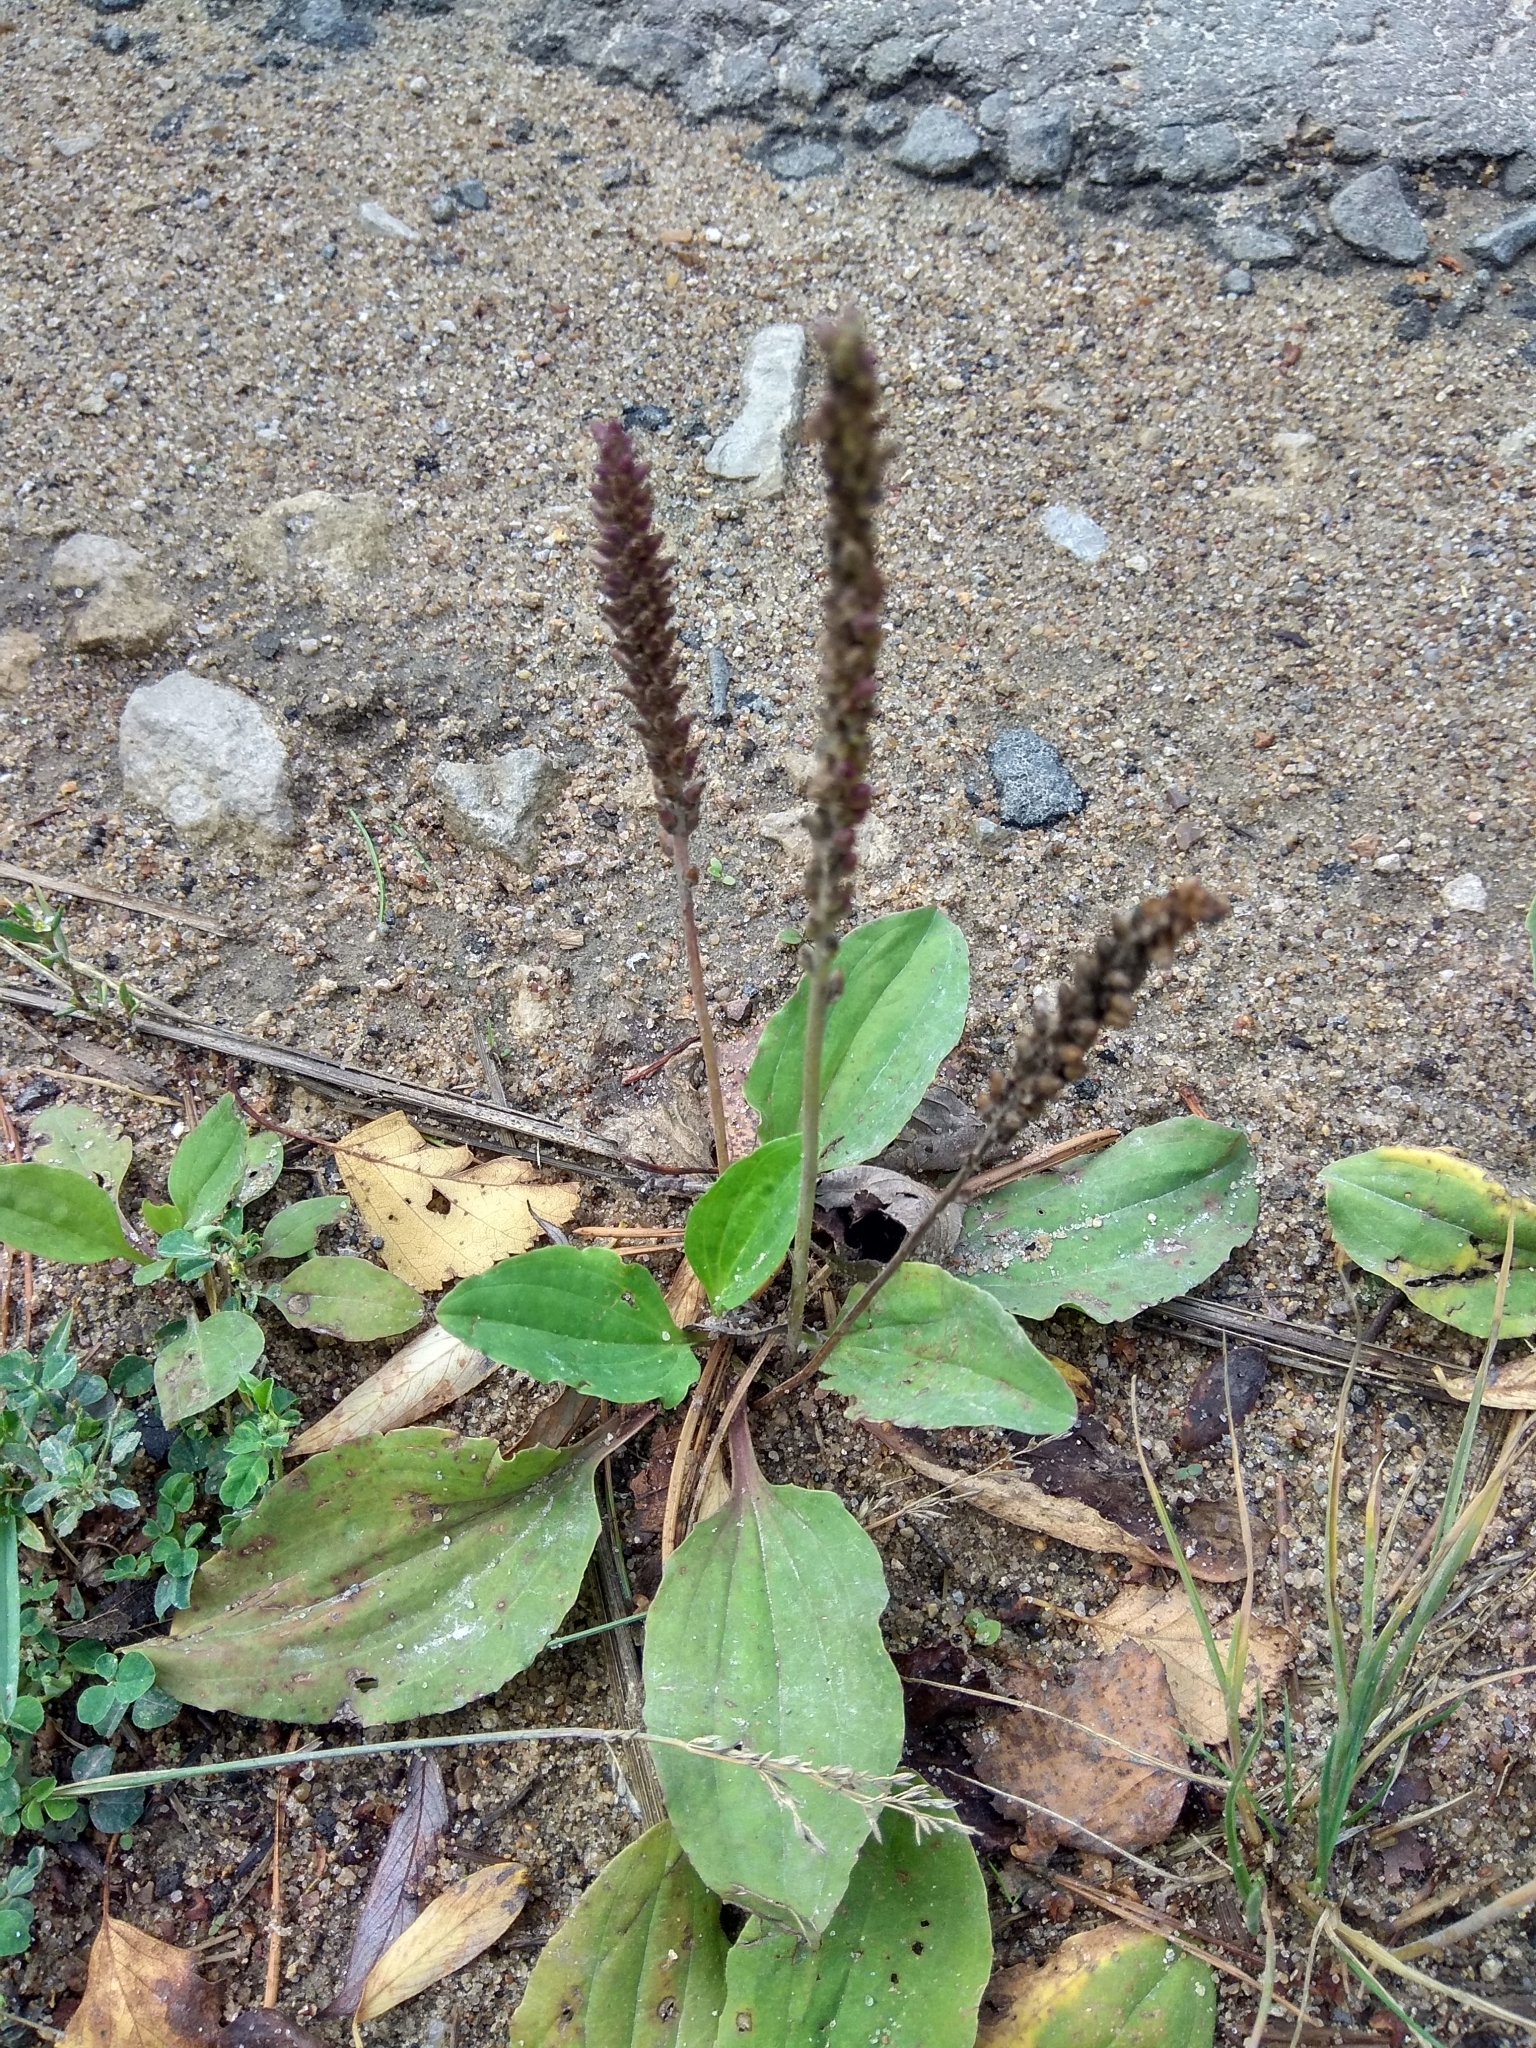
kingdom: Plantae
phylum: Tracheophyta
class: Magnoliopsida
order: Lamiales
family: Plantaginaceae
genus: Plantago
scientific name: Plantago major
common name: Common plantain
